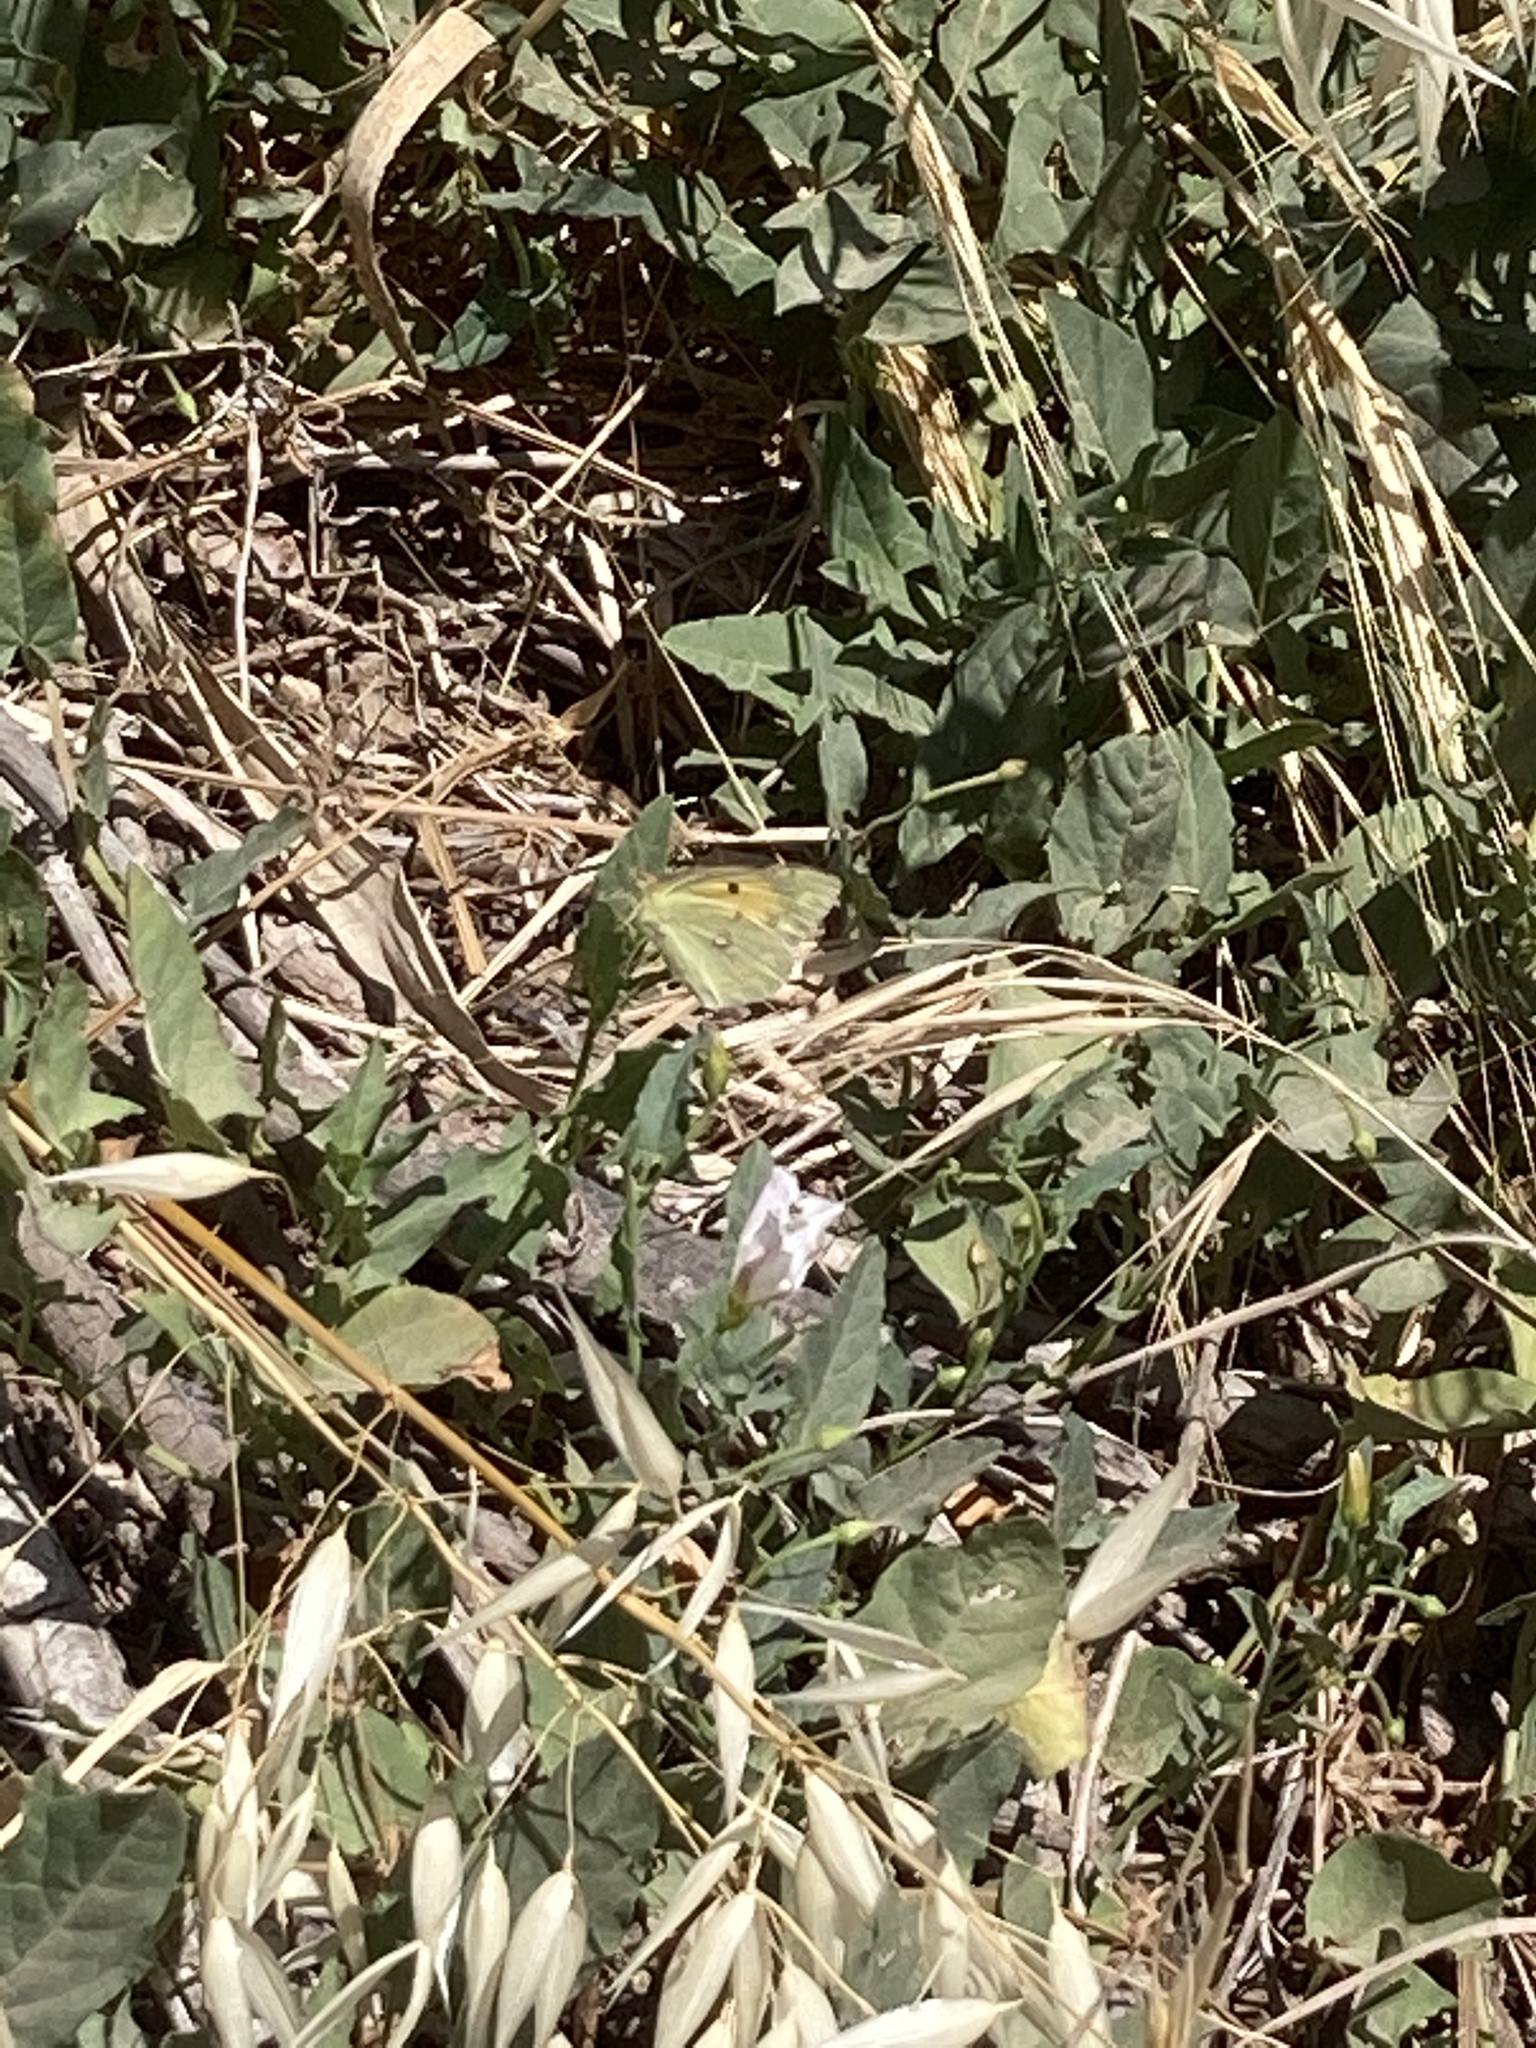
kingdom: Animalia
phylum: Arthropoda
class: Insecta
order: Lepidoptera
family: Pieridae
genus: Colias
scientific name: Colias croceus
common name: Clouded yellow
